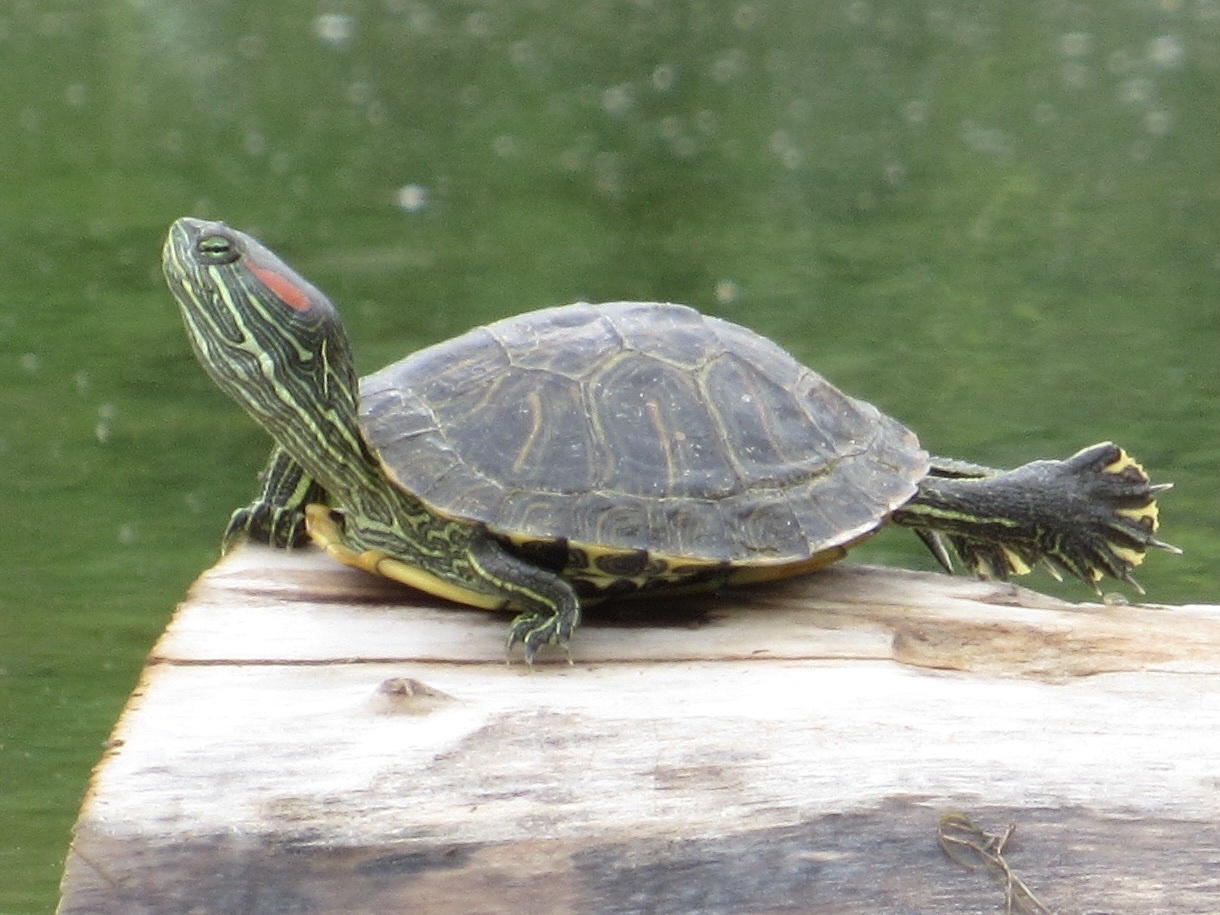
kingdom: Animalia
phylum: Chordata
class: Testudines
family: Emydidae
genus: Trachemys
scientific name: Trachemys scripta
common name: Slider
